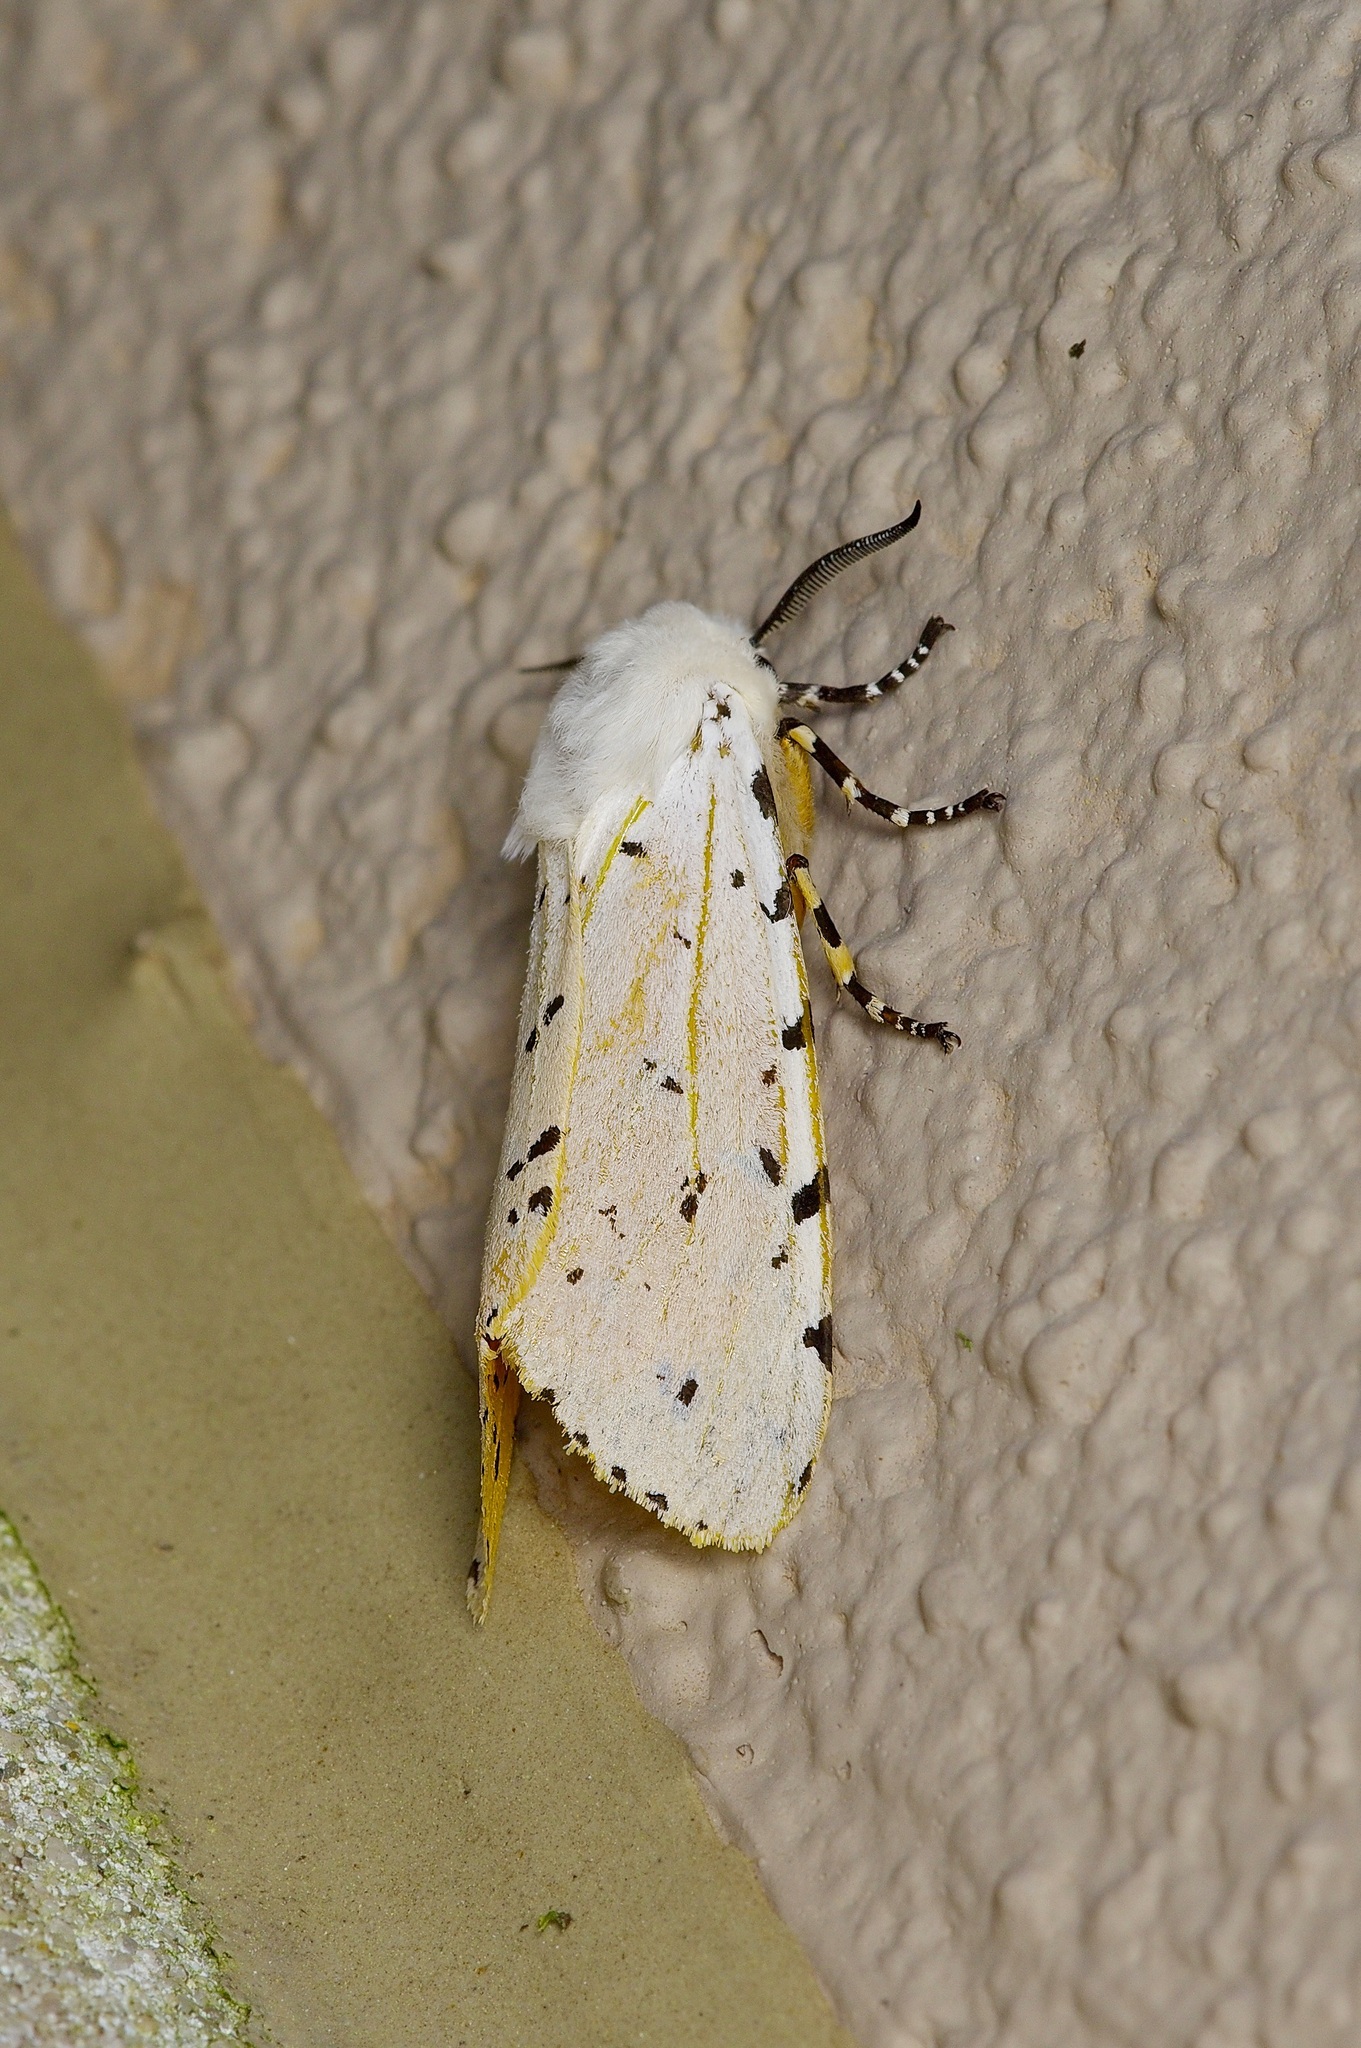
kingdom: Animalia
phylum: Arthropoda
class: Insecta
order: Lepidoptera
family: Erebidae
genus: Estigmene
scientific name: Estigmene acrea
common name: Salt marsh moth
